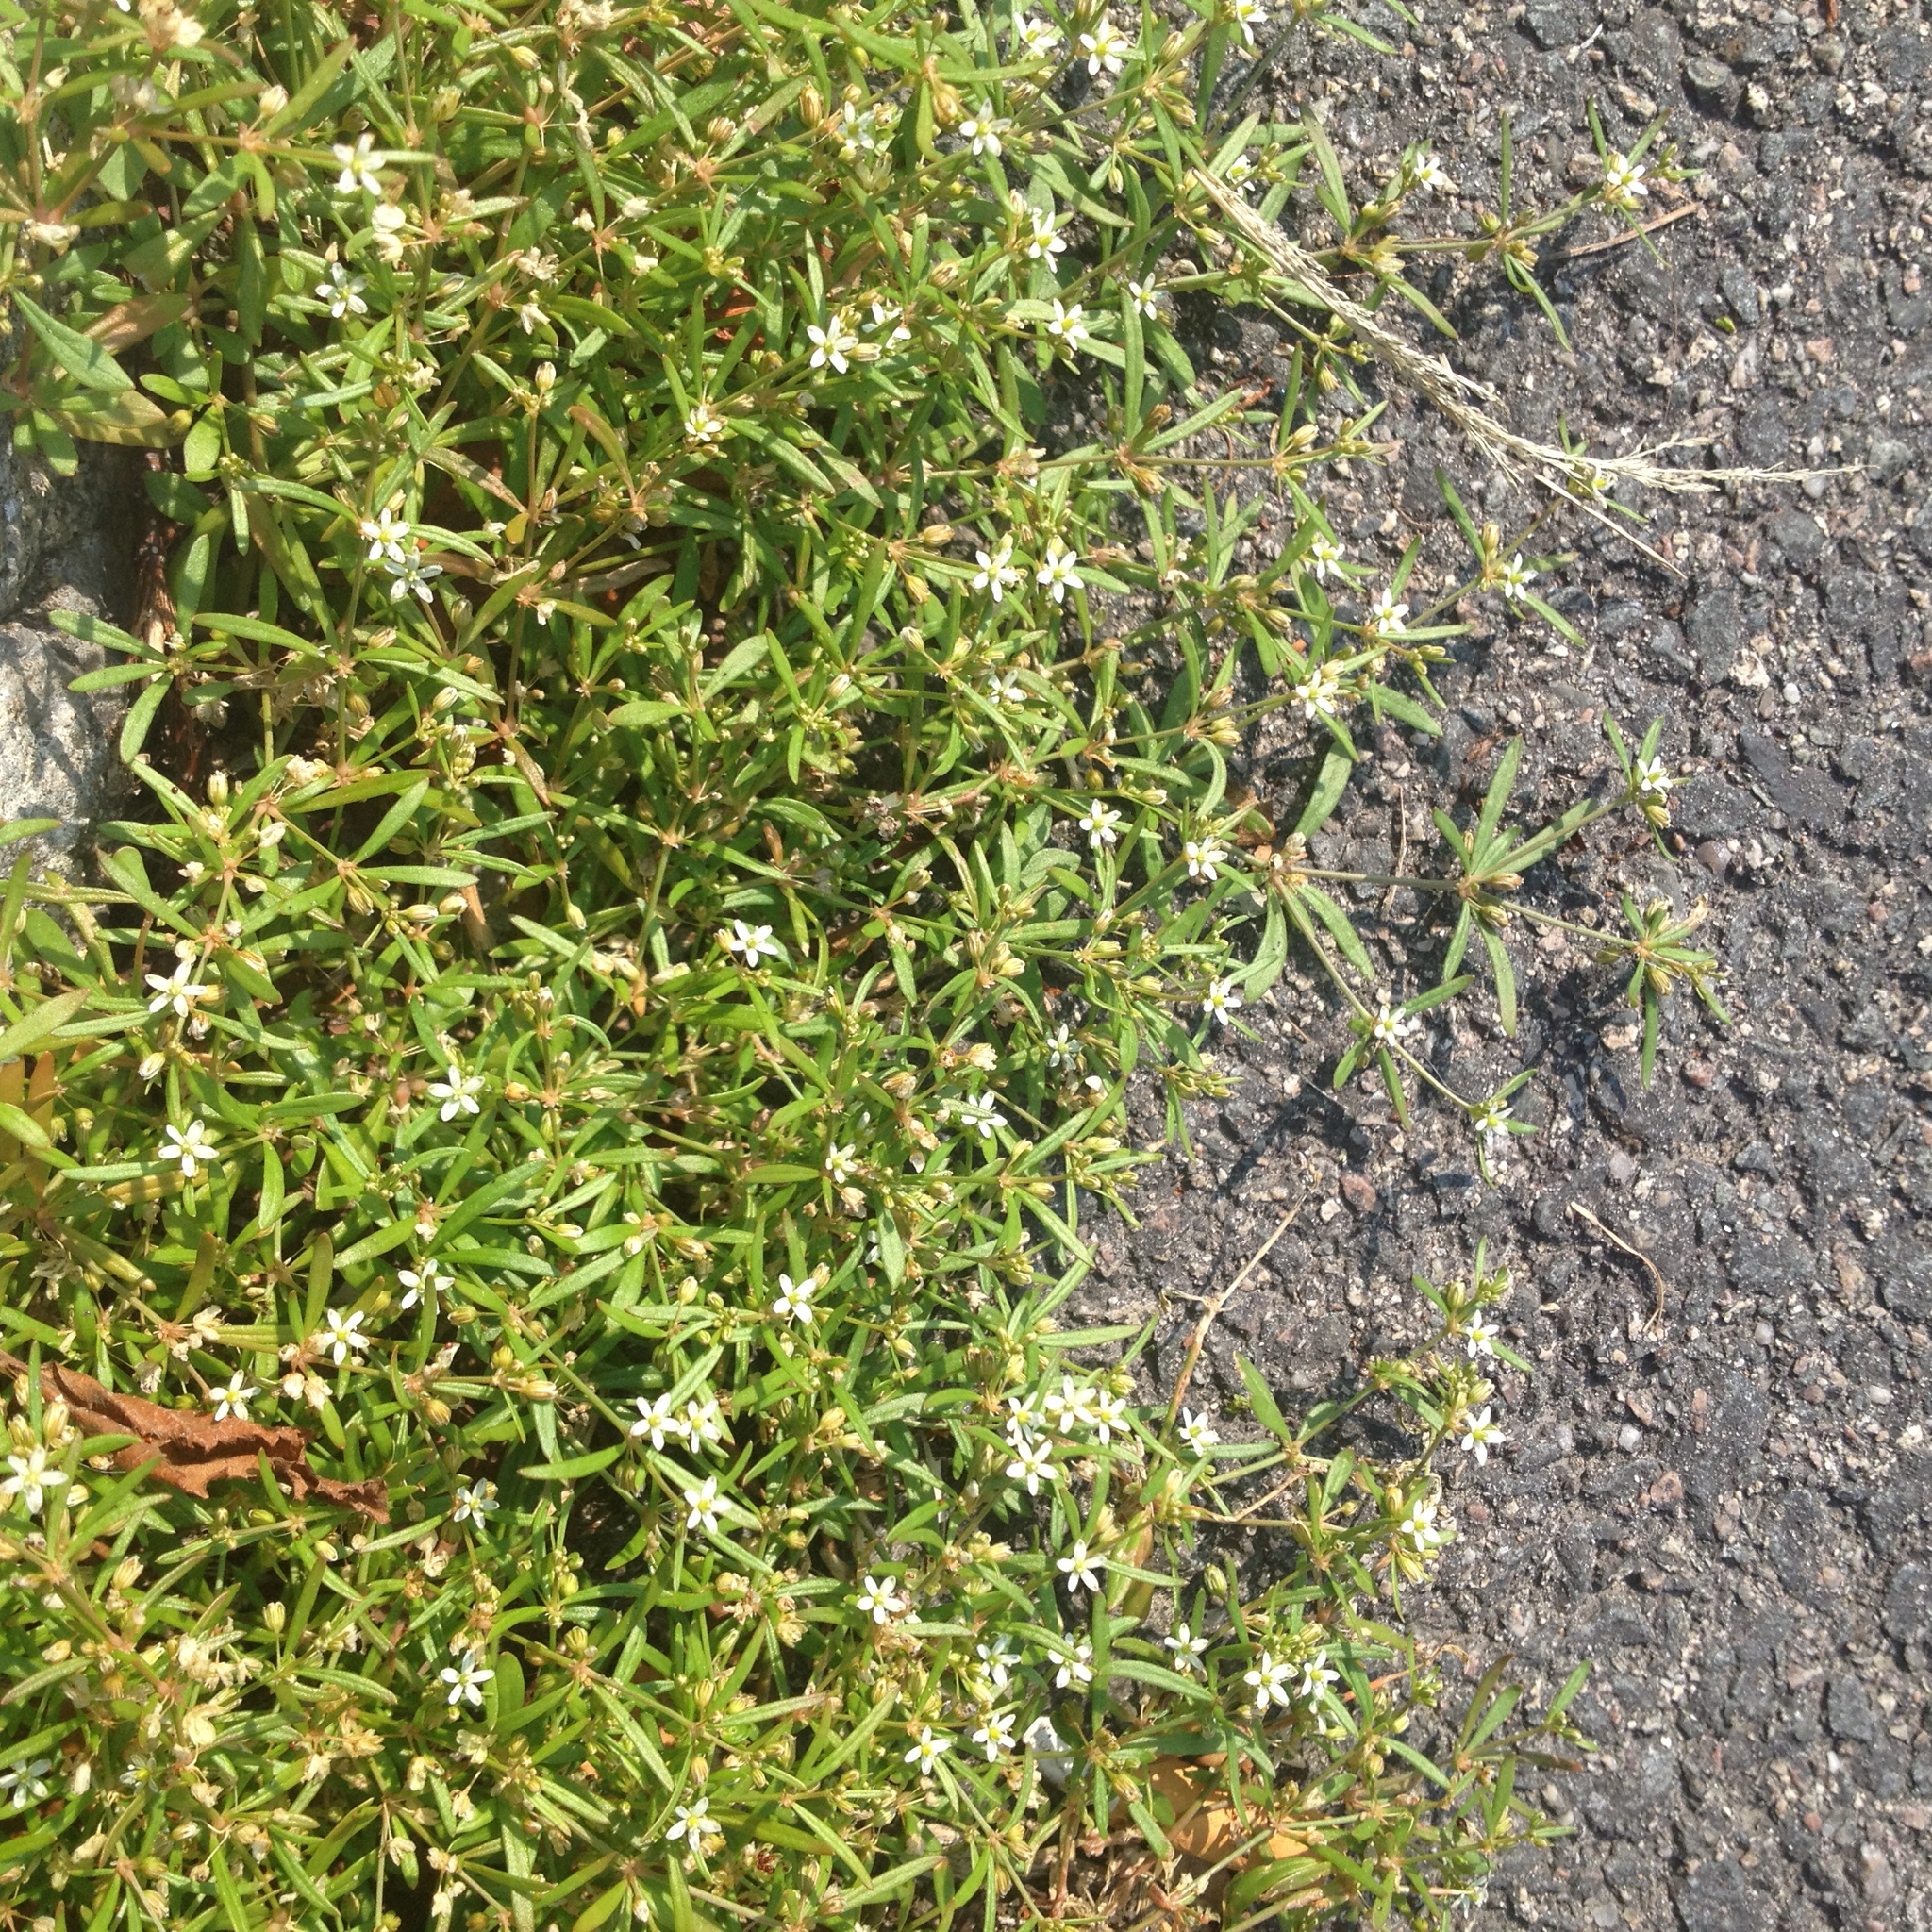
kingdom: Plantae
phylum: Tracheophyta
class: Magnoliopsida
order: Caryophyllales
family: Molluginaceae
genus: Mollugo
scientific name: Mollugo verticillata
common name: Green carpetweed
